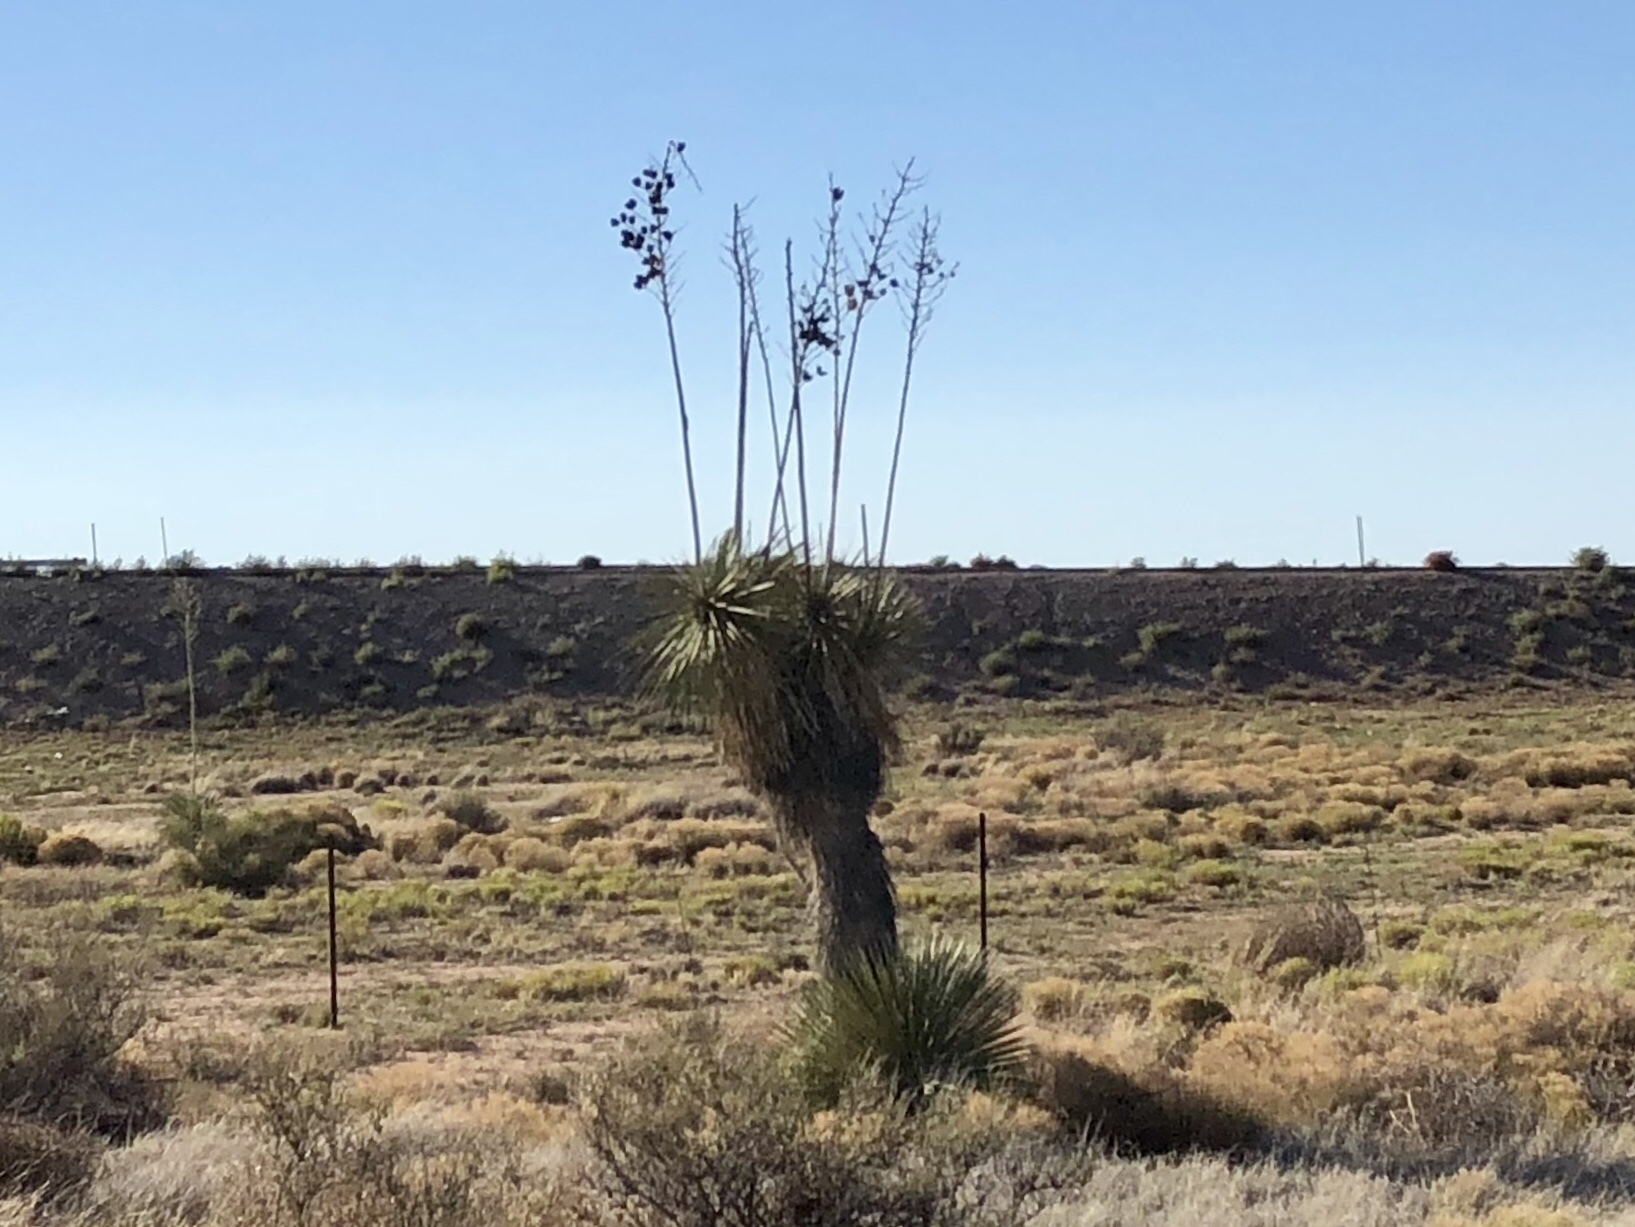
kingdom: Plantae
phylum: Tracheophyta
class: Liliopsida
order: Asparagales
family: Asparagaceae
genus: Yucca
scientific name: Yucca elata
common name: Palmella
